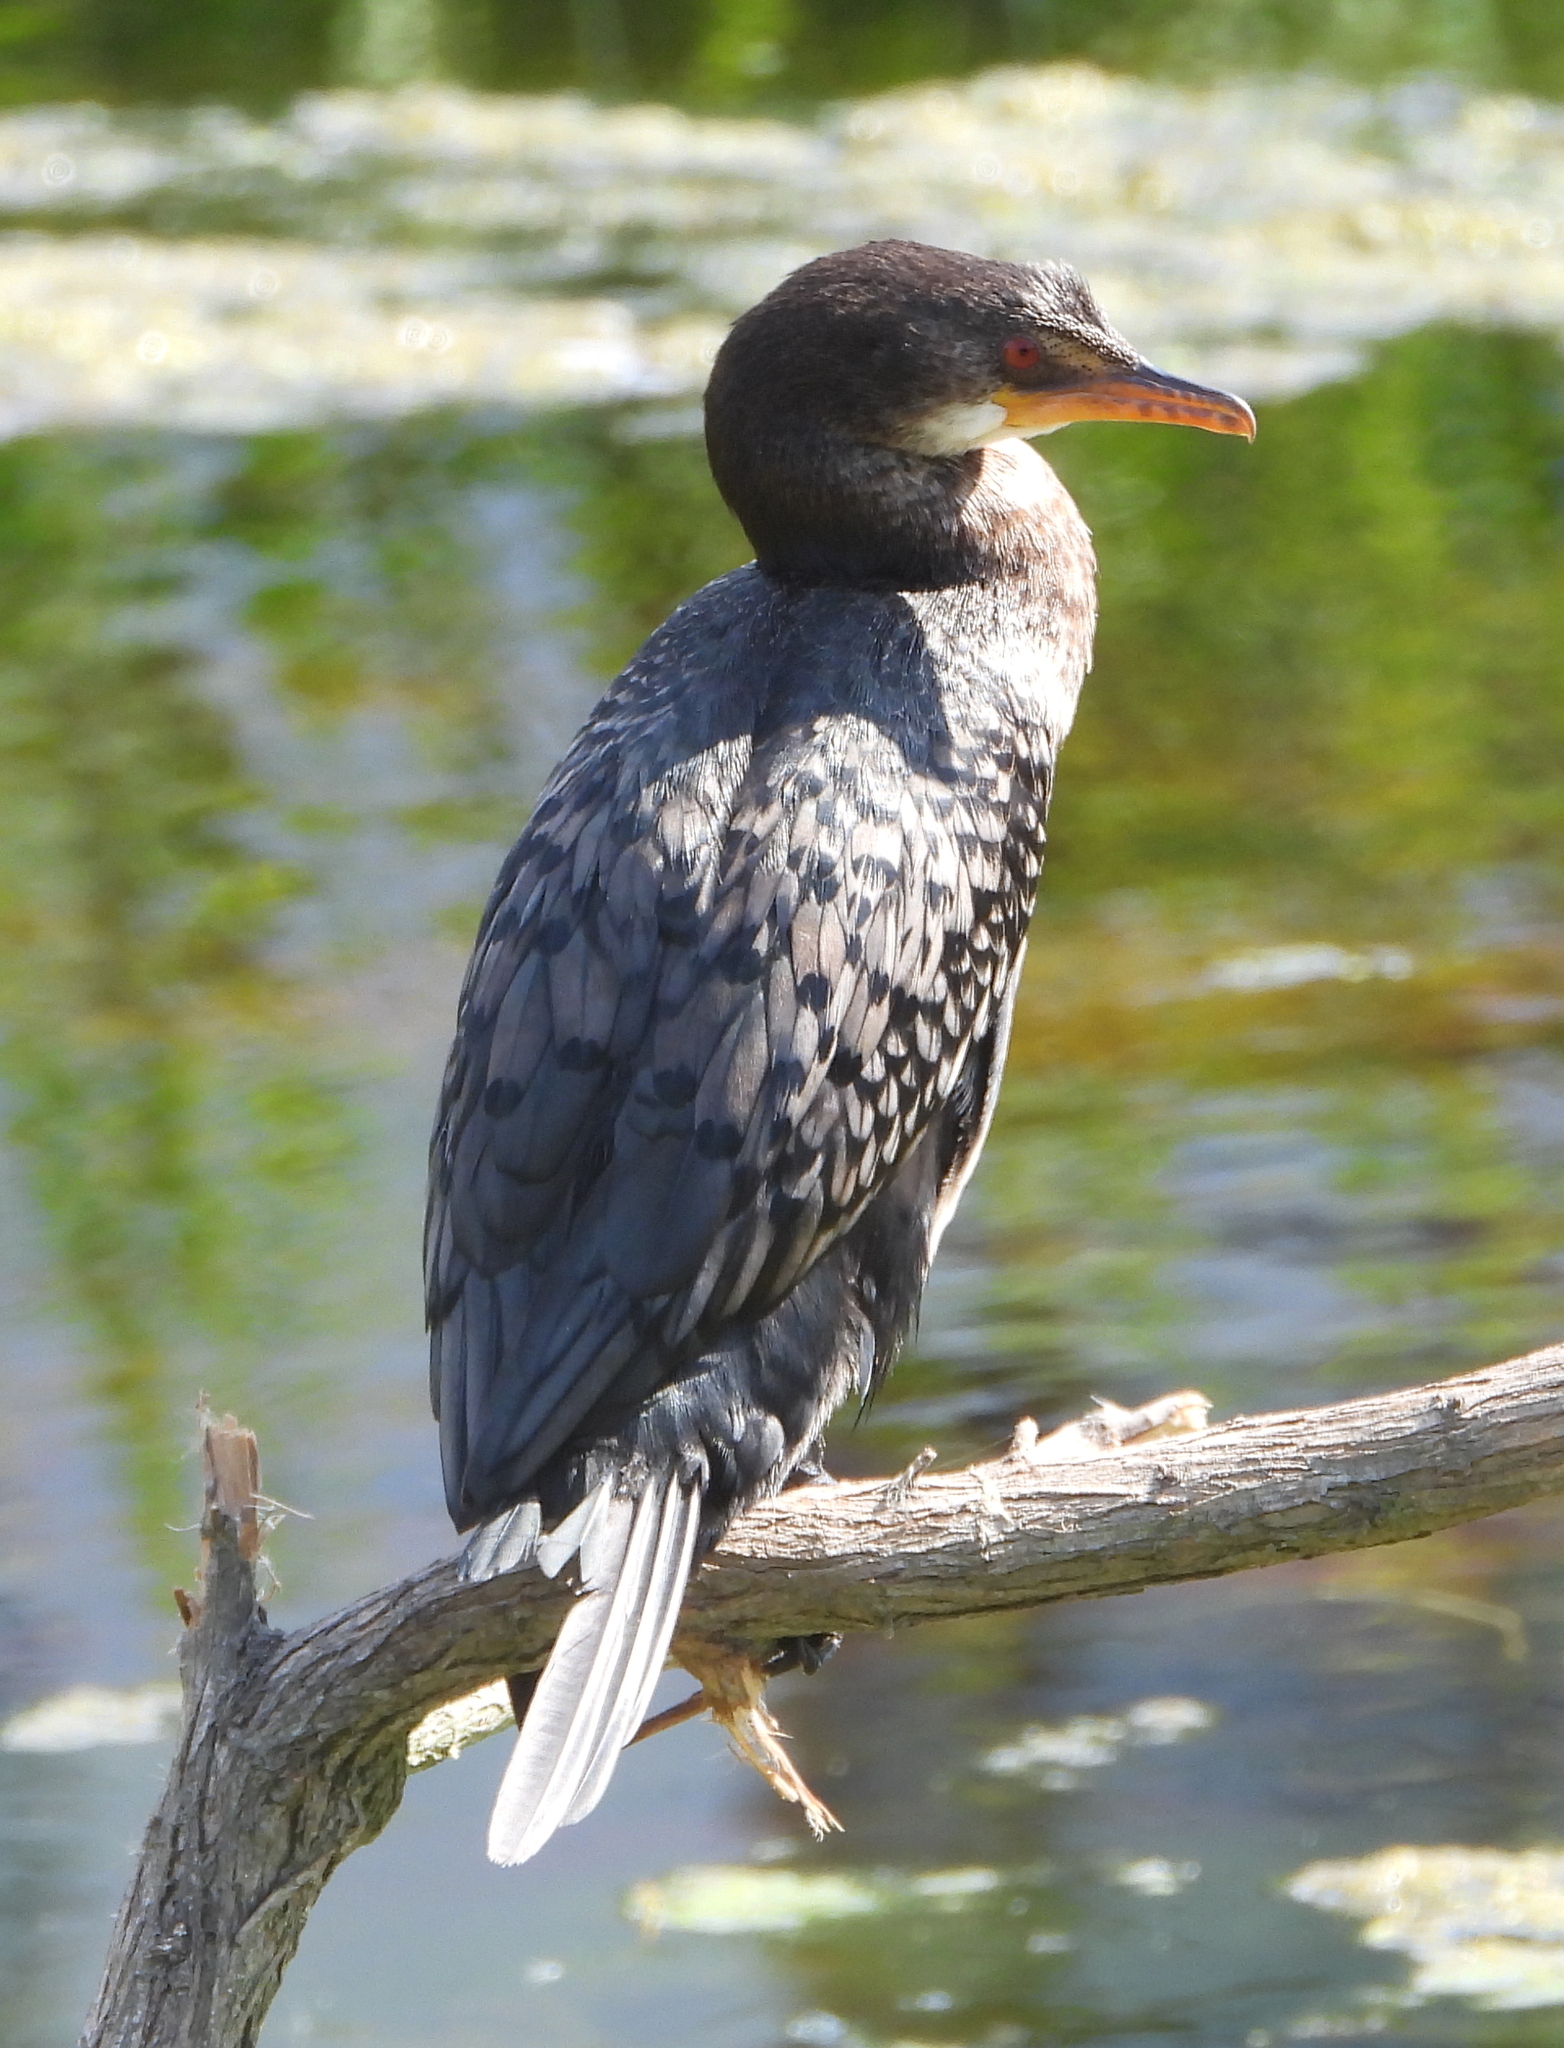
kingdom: Animalia
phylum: Chordata
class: Aves
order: Suliformes
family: Phalacrocoracidae
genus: Microcarbo
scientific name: Microcarbo africanus
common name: Long-tailed cormorant
